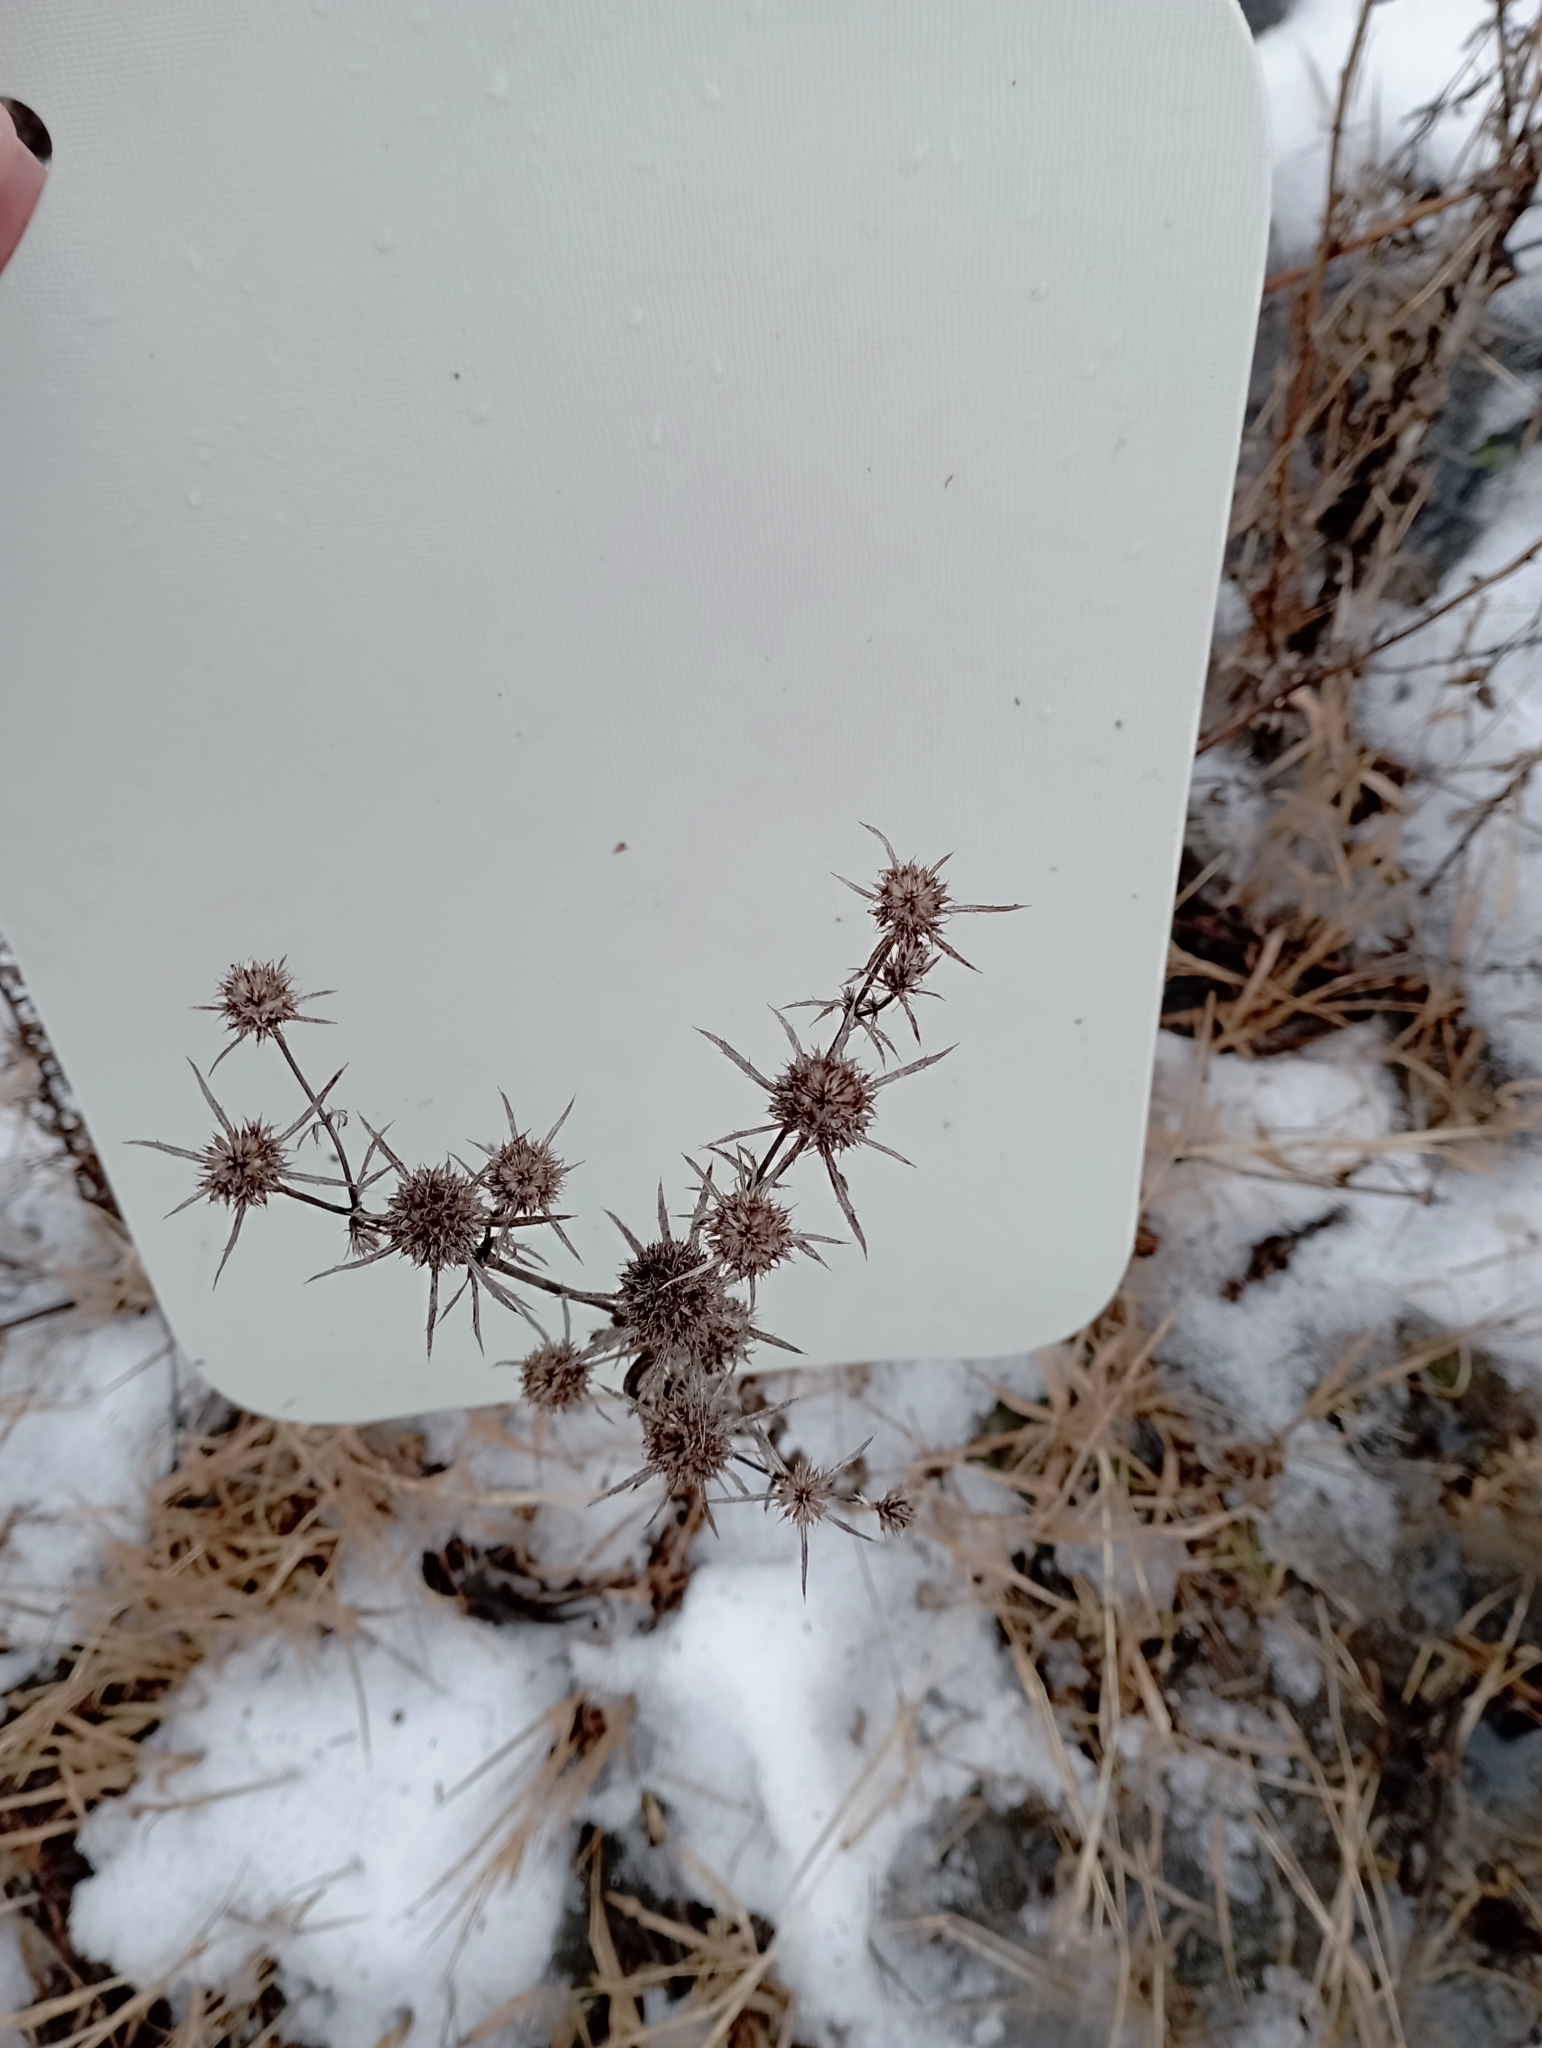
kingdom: Plantae
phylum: Tracheophyta
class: Magnoliopsida
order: Apiales
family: Apiaceae
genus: Eryngium
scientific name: Eryngium planum
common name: Blue eryngo
